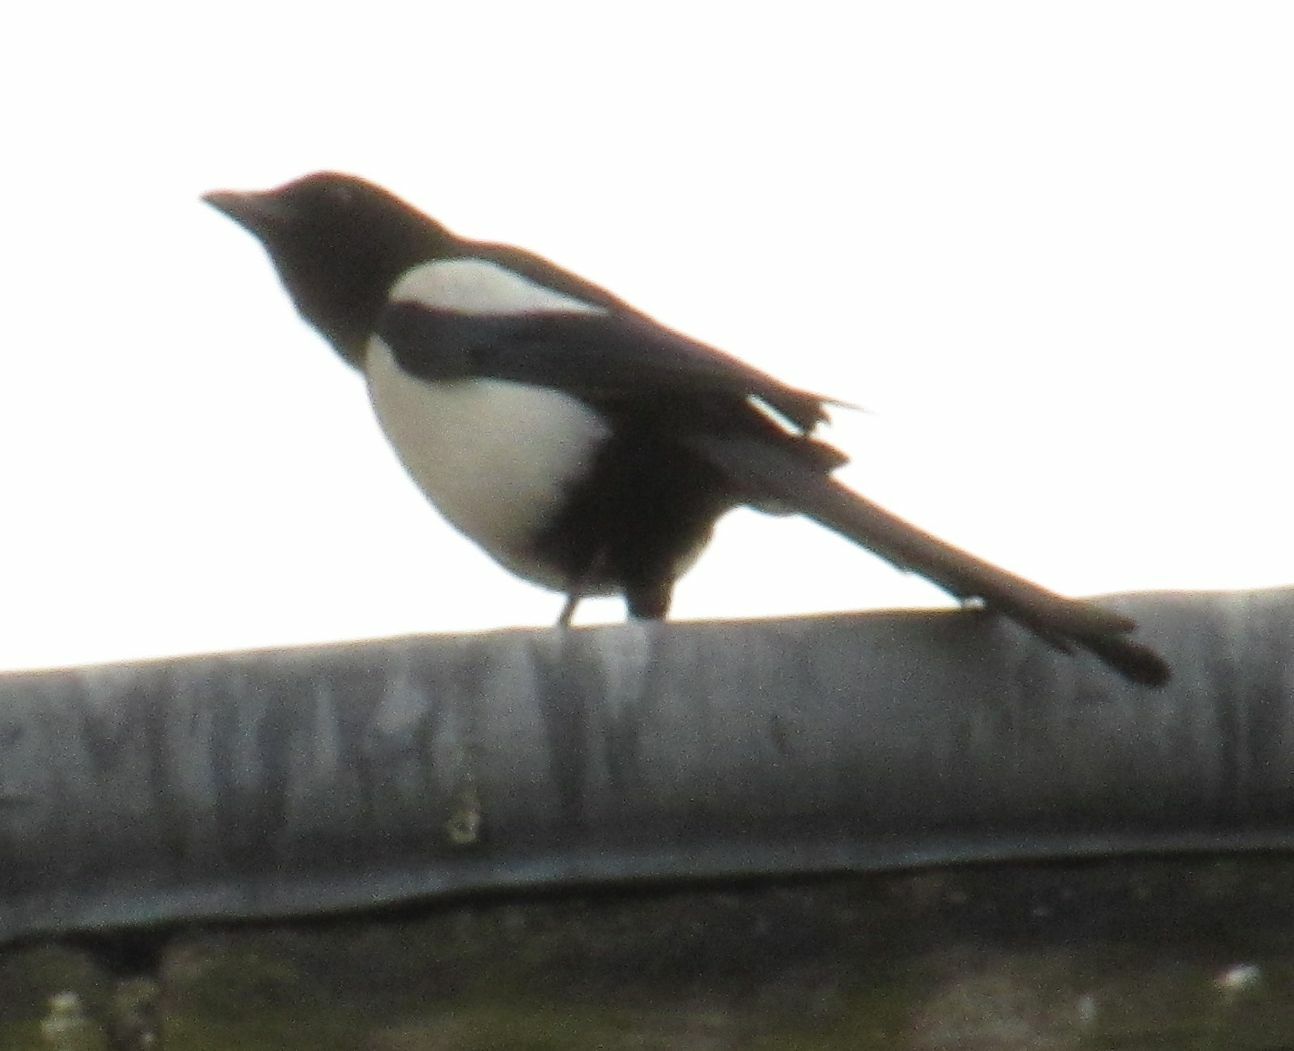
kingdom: Animalia
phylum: Chordata
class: Aves
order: Passeriformes
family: Corvidae
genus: Pica
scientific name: Pica pica
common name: Eurasian magpie
